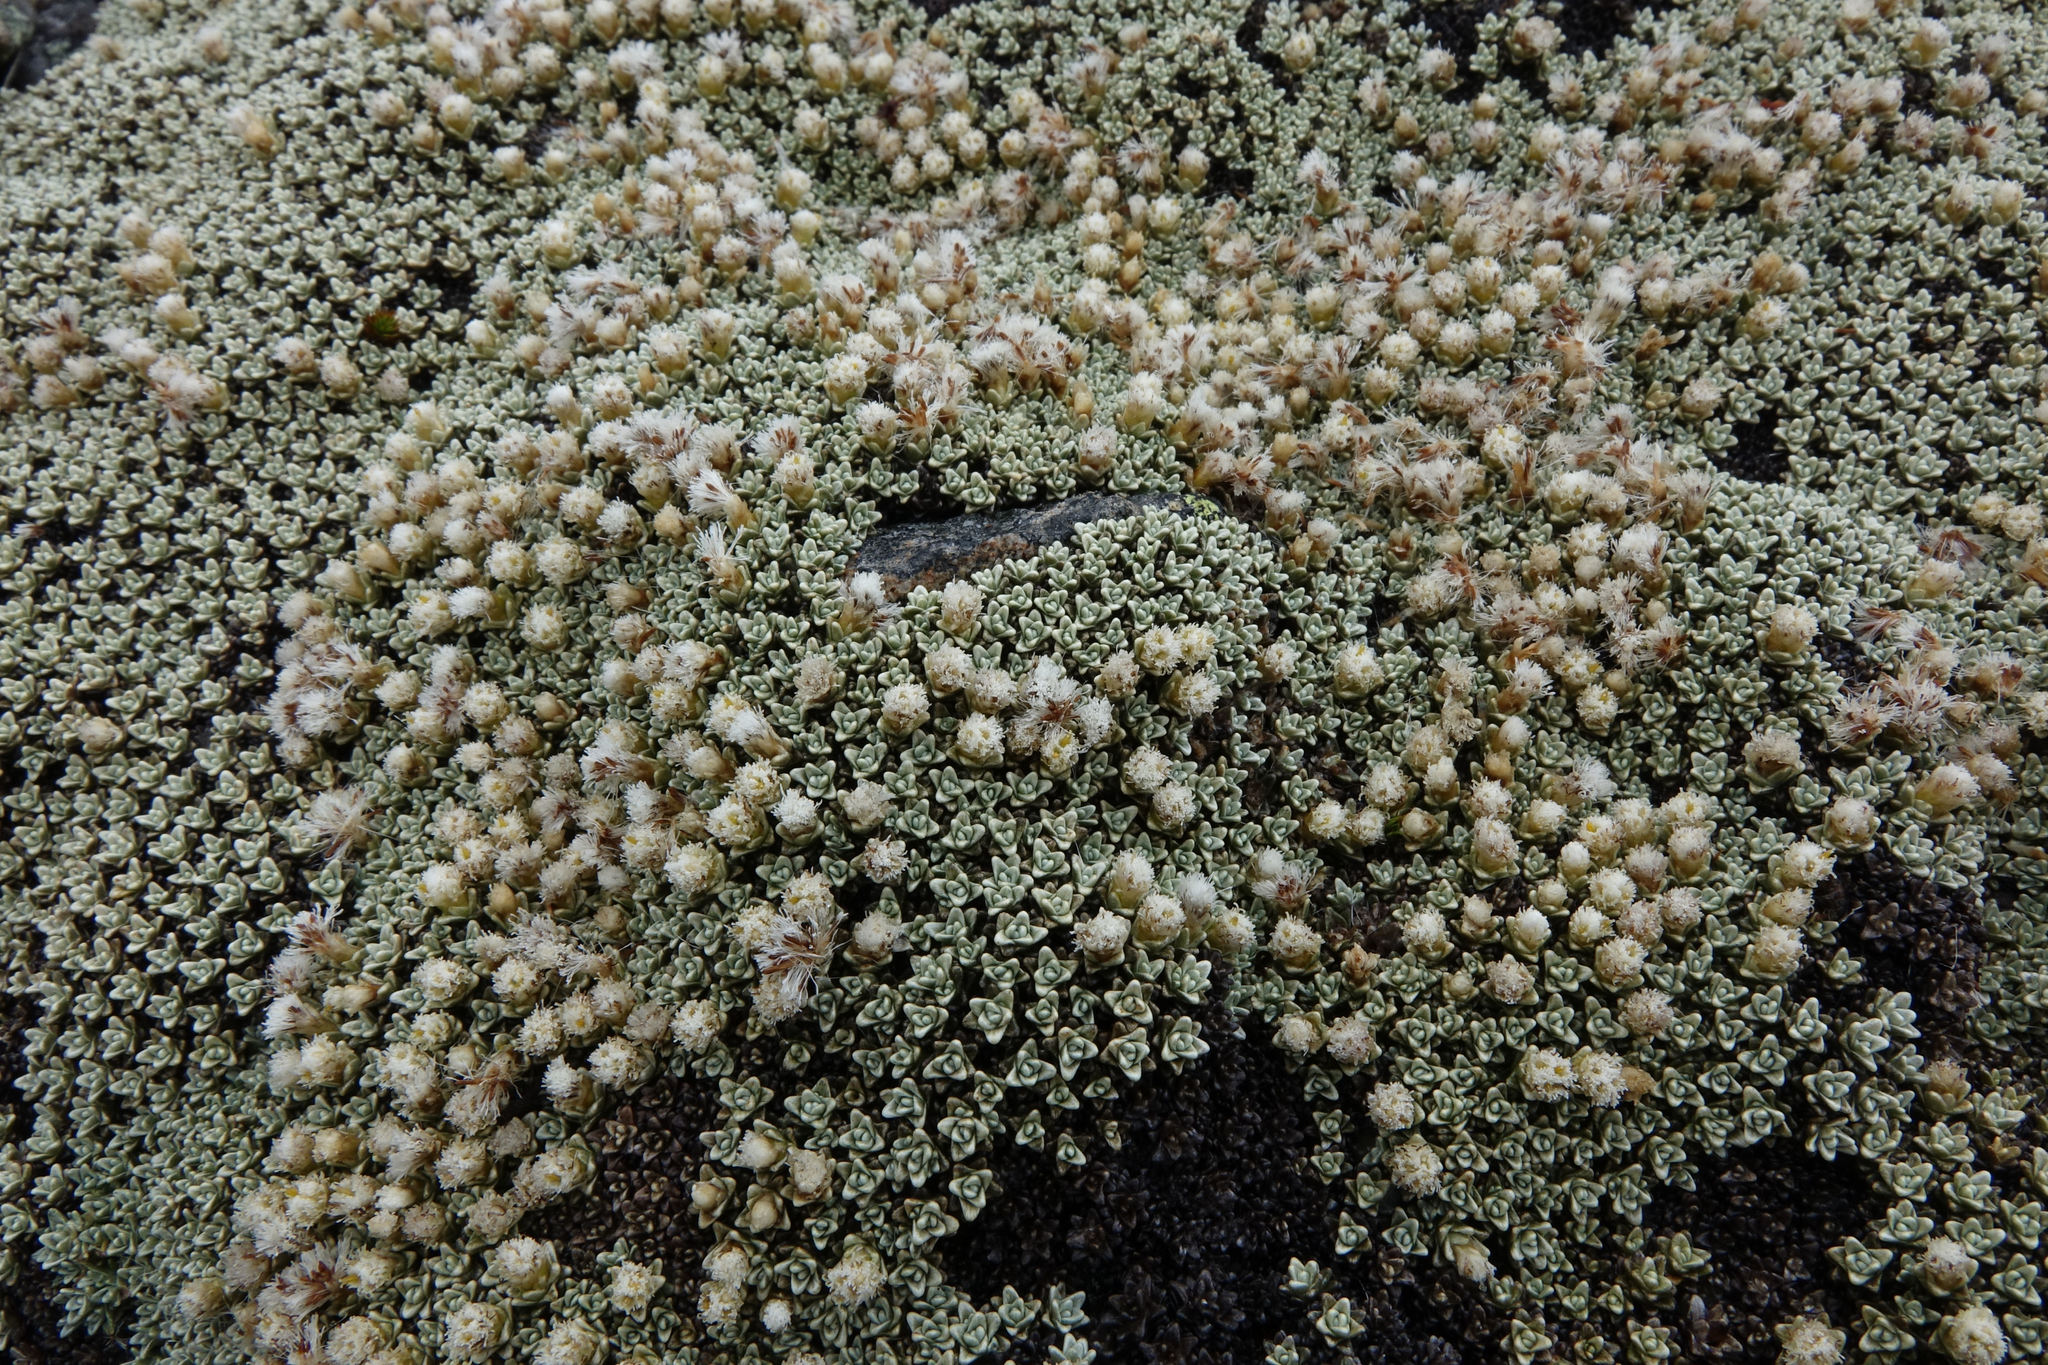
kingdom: Plantae
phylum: Tracheophyta
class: Magnoliopsida
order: Asterales
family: Asteraceae
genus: Raoulia
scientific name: Raoulia hectorii
